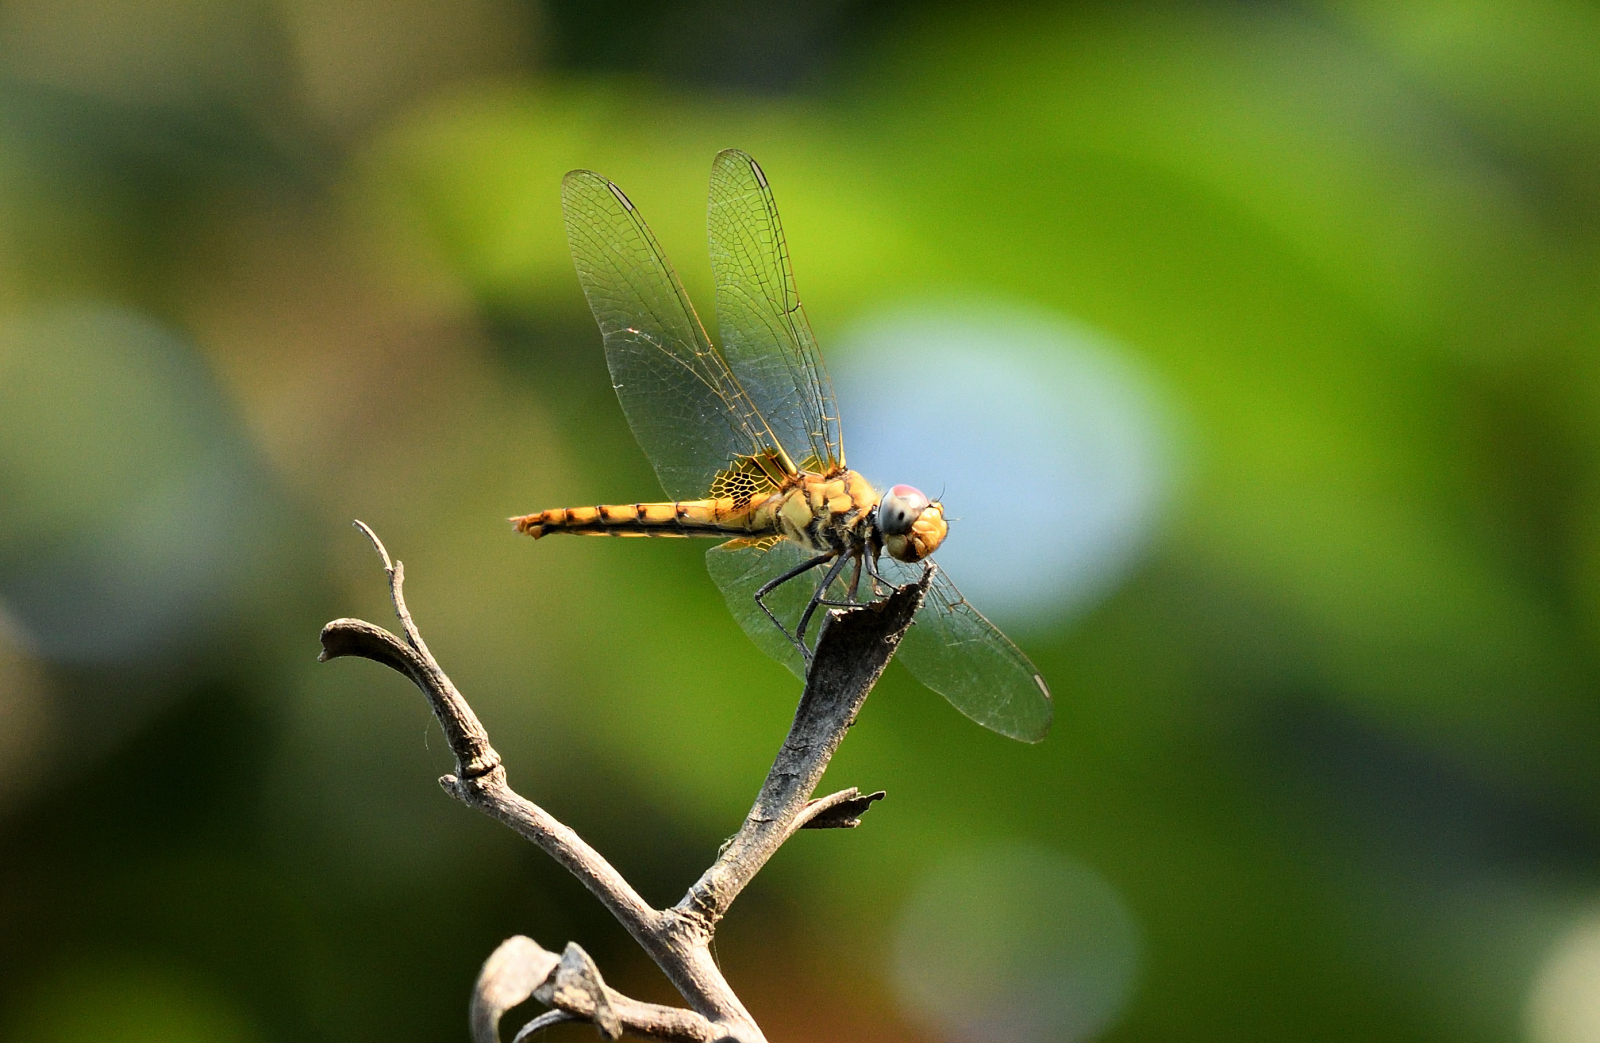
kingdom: Animalia
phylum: Arthropoda
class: Insecta
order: Odonata
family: Libellulidae
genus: Urothemis
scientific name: Urothemis signata
